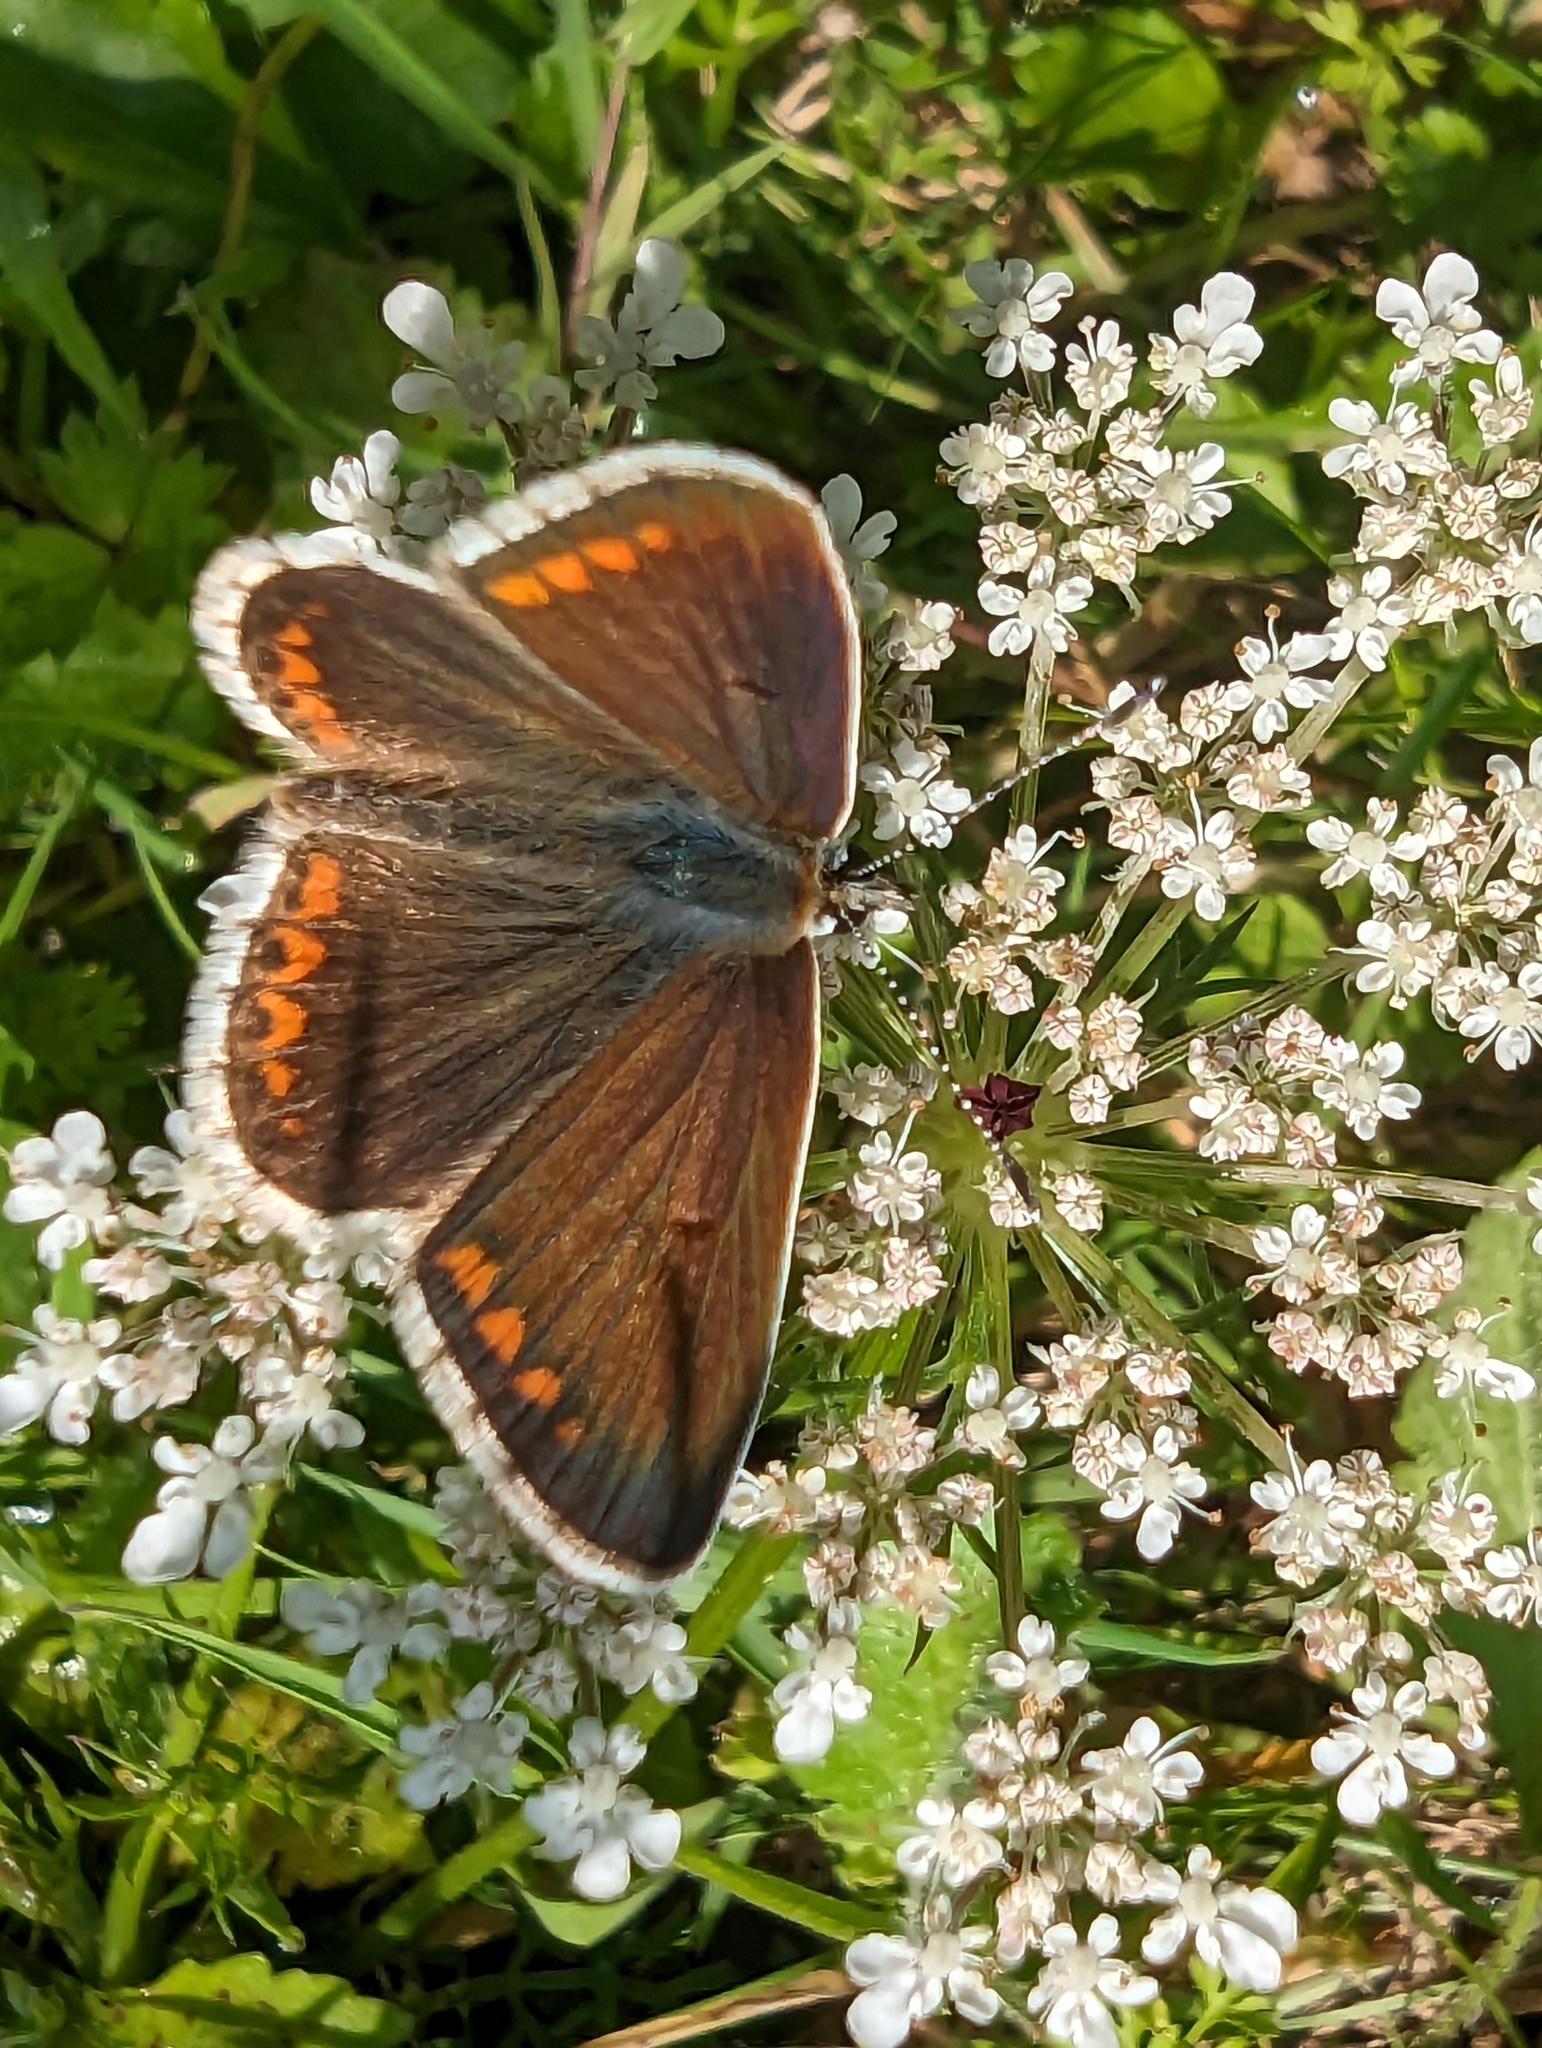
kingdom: Animalia
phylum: Arthropoda
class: Insecta
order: Lepidoptera
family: Lycaenidae
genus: Aricia
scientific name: Aricia agestis
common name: Brown argus
